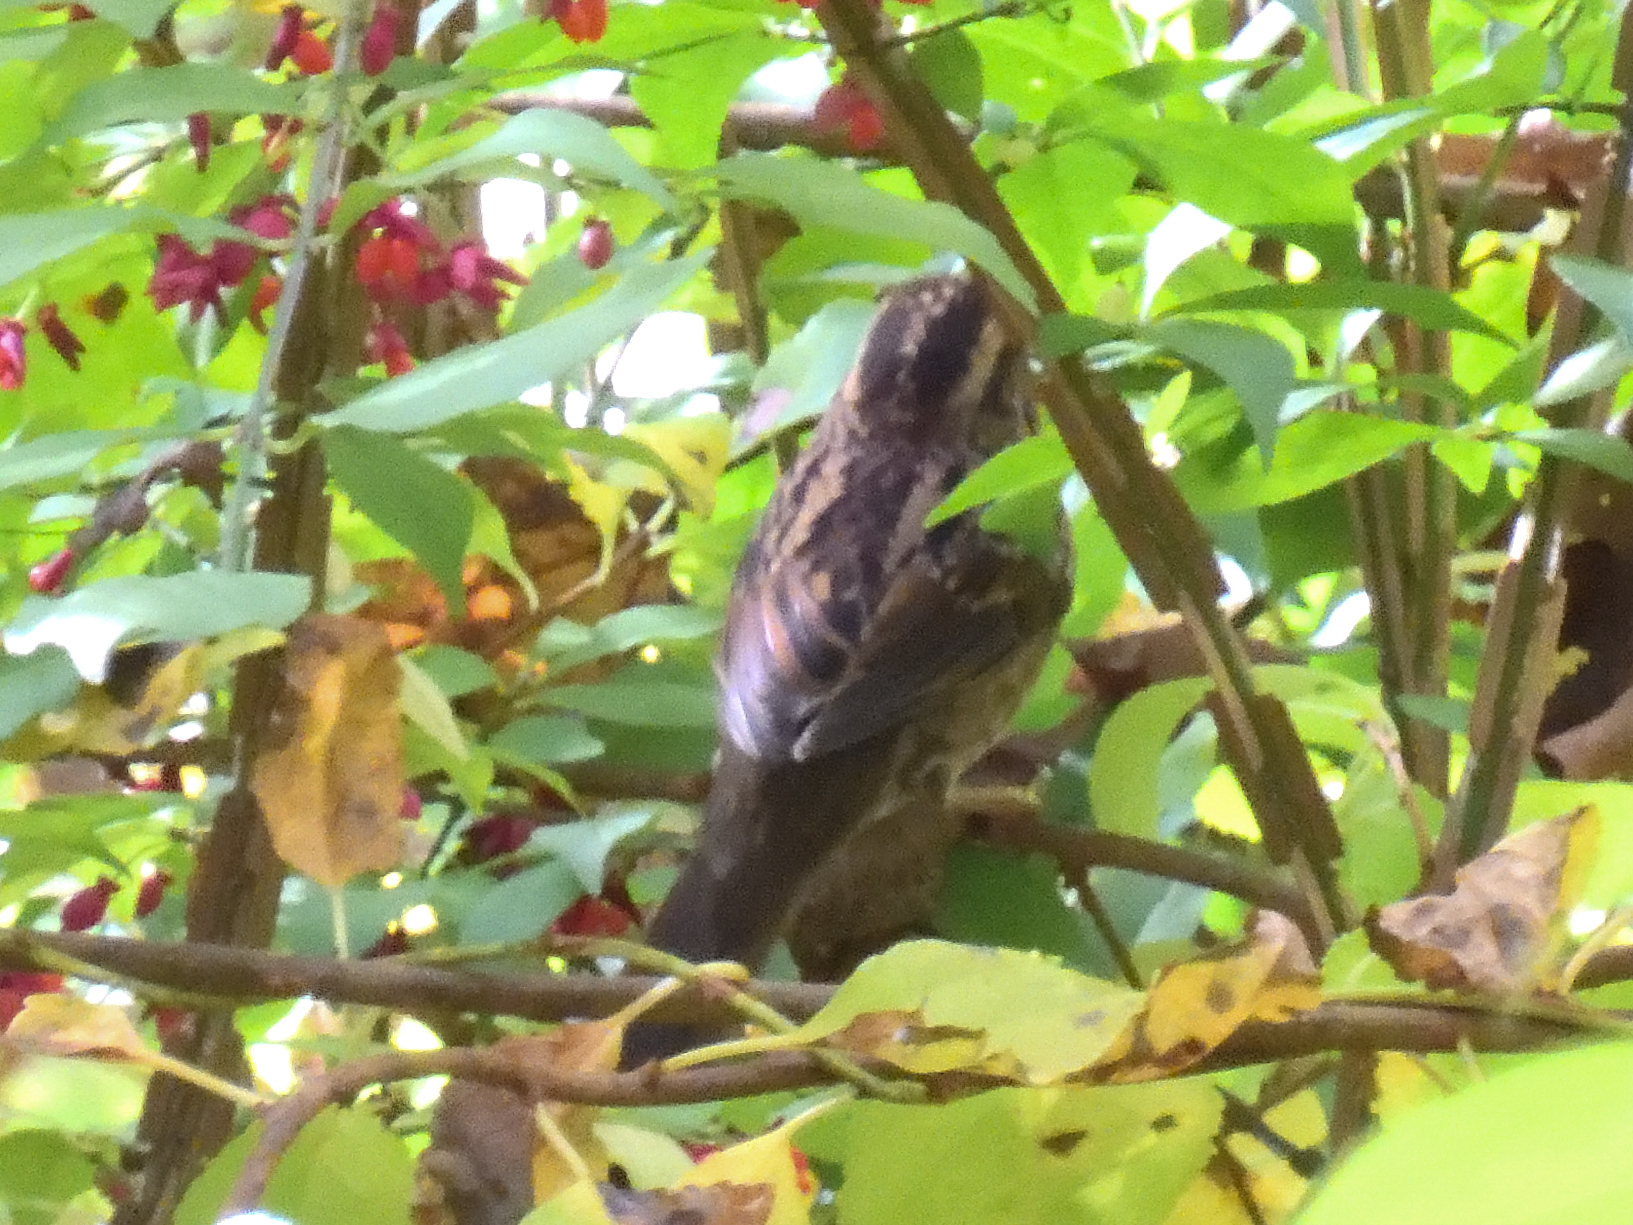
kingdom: Animalia
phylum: Chordata
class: Aves
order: Passeriformes
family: Passerellidae
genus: Zonotrichia
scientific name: Zonotrichia albicollis
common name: White-throated sparrow
